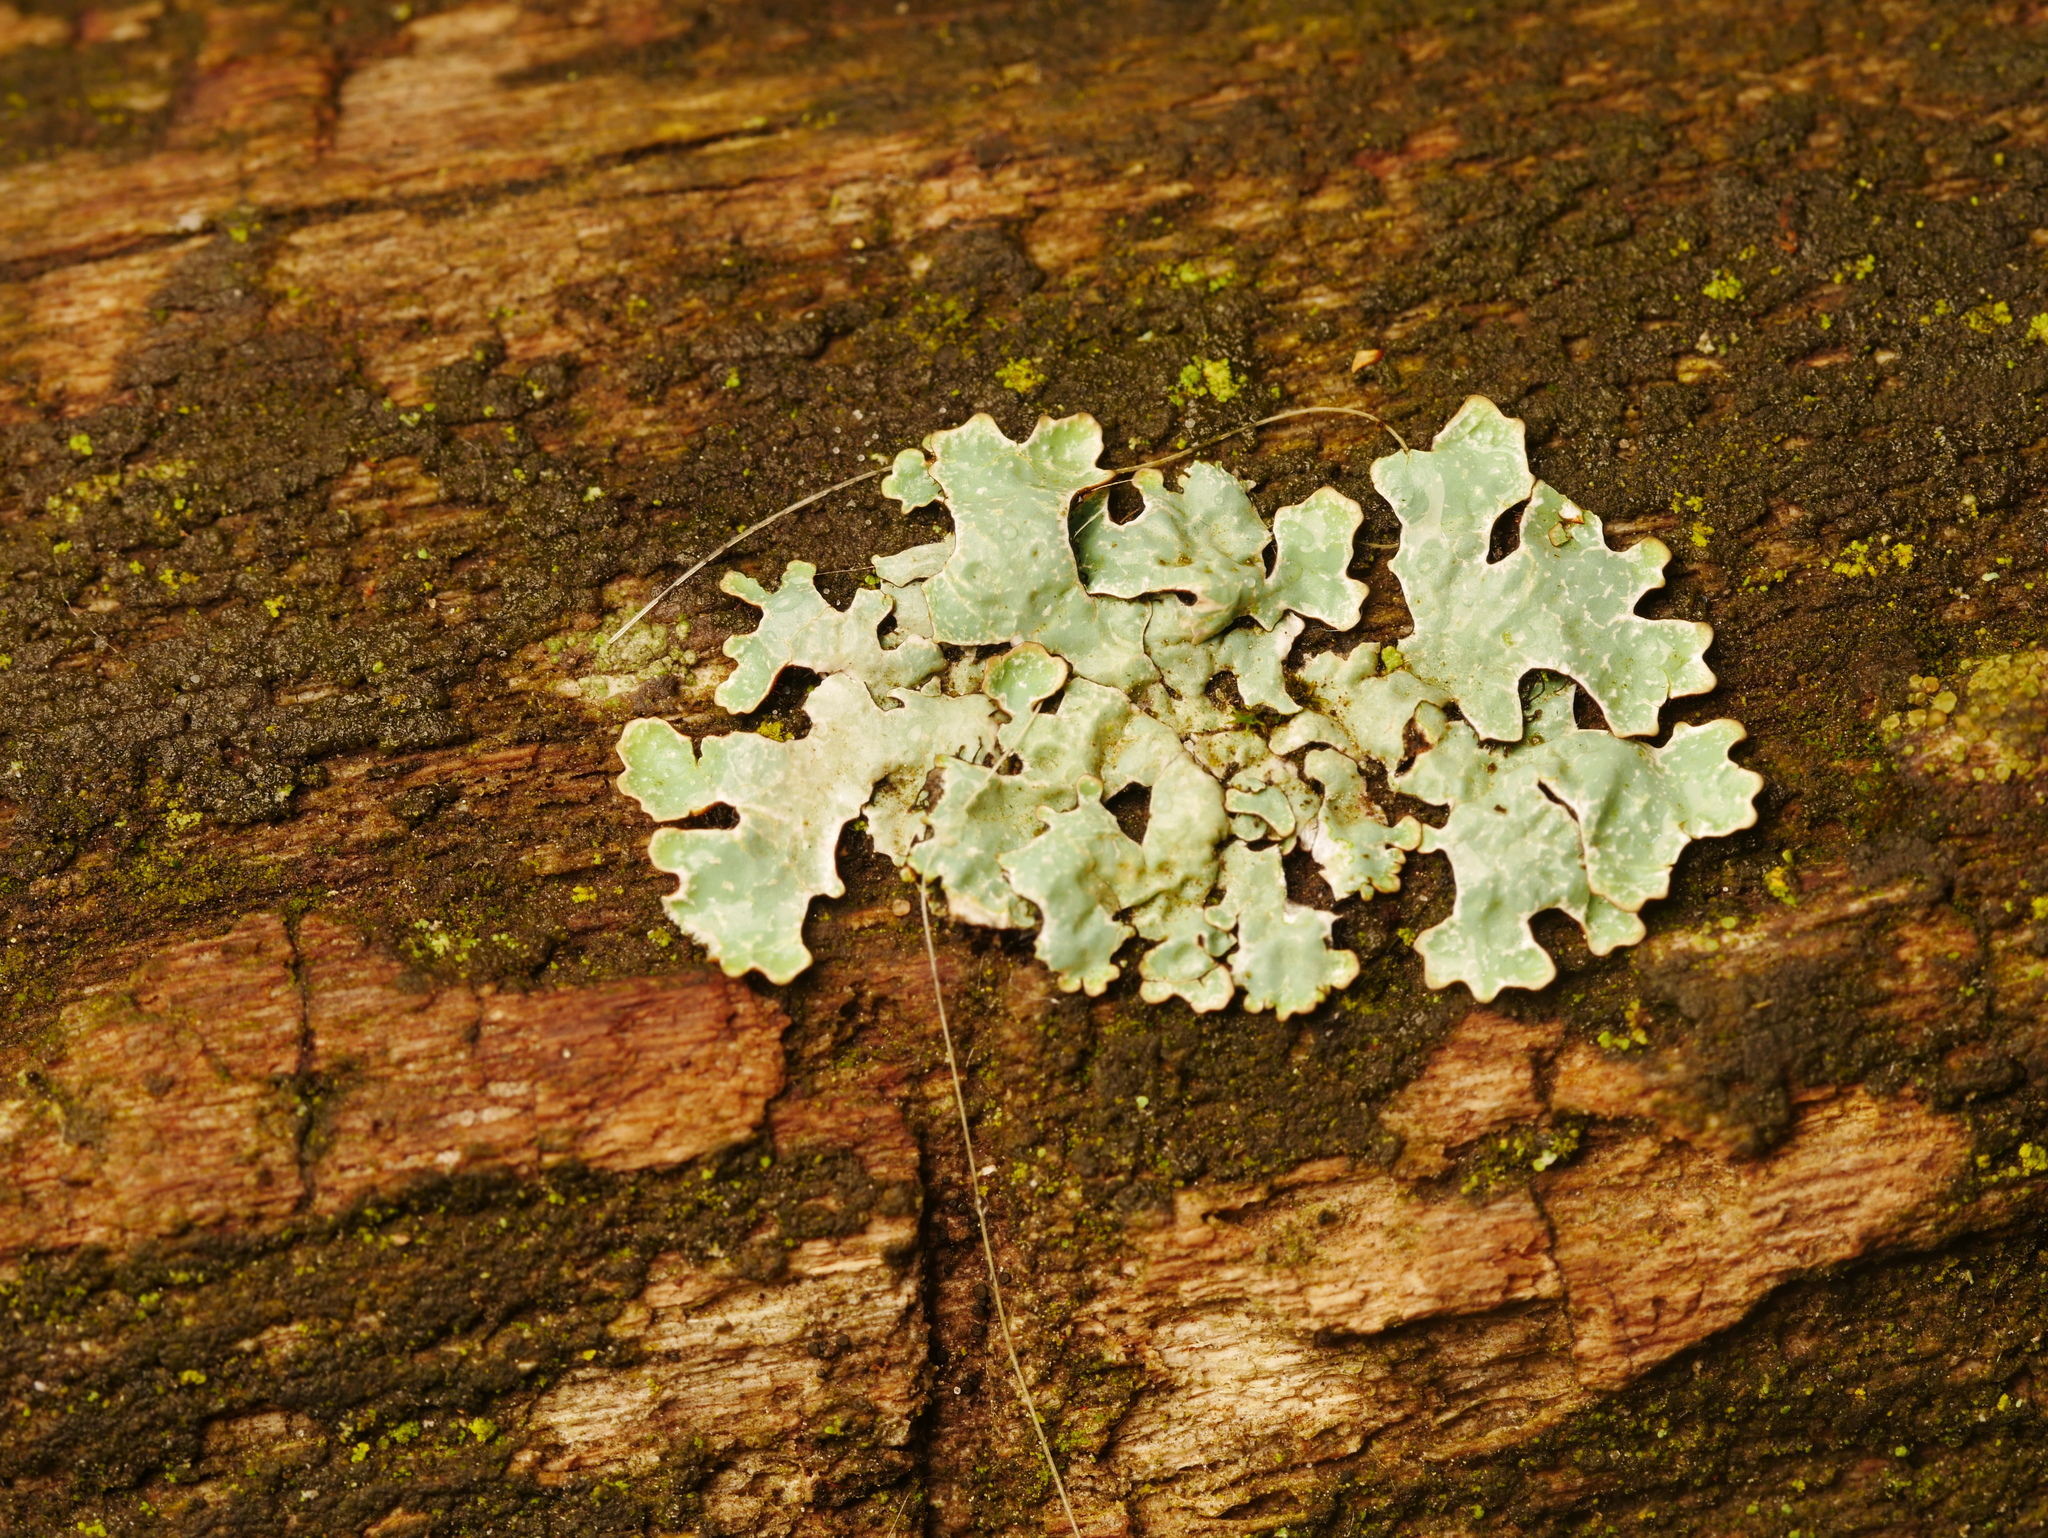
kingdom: Fungi
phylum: Ascomycota
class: Lecanoromycetes
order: Lecanorales
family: Parmeliaceae
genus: Parmelia
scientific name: Parmelia sulcata
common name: Netted shield lichen
